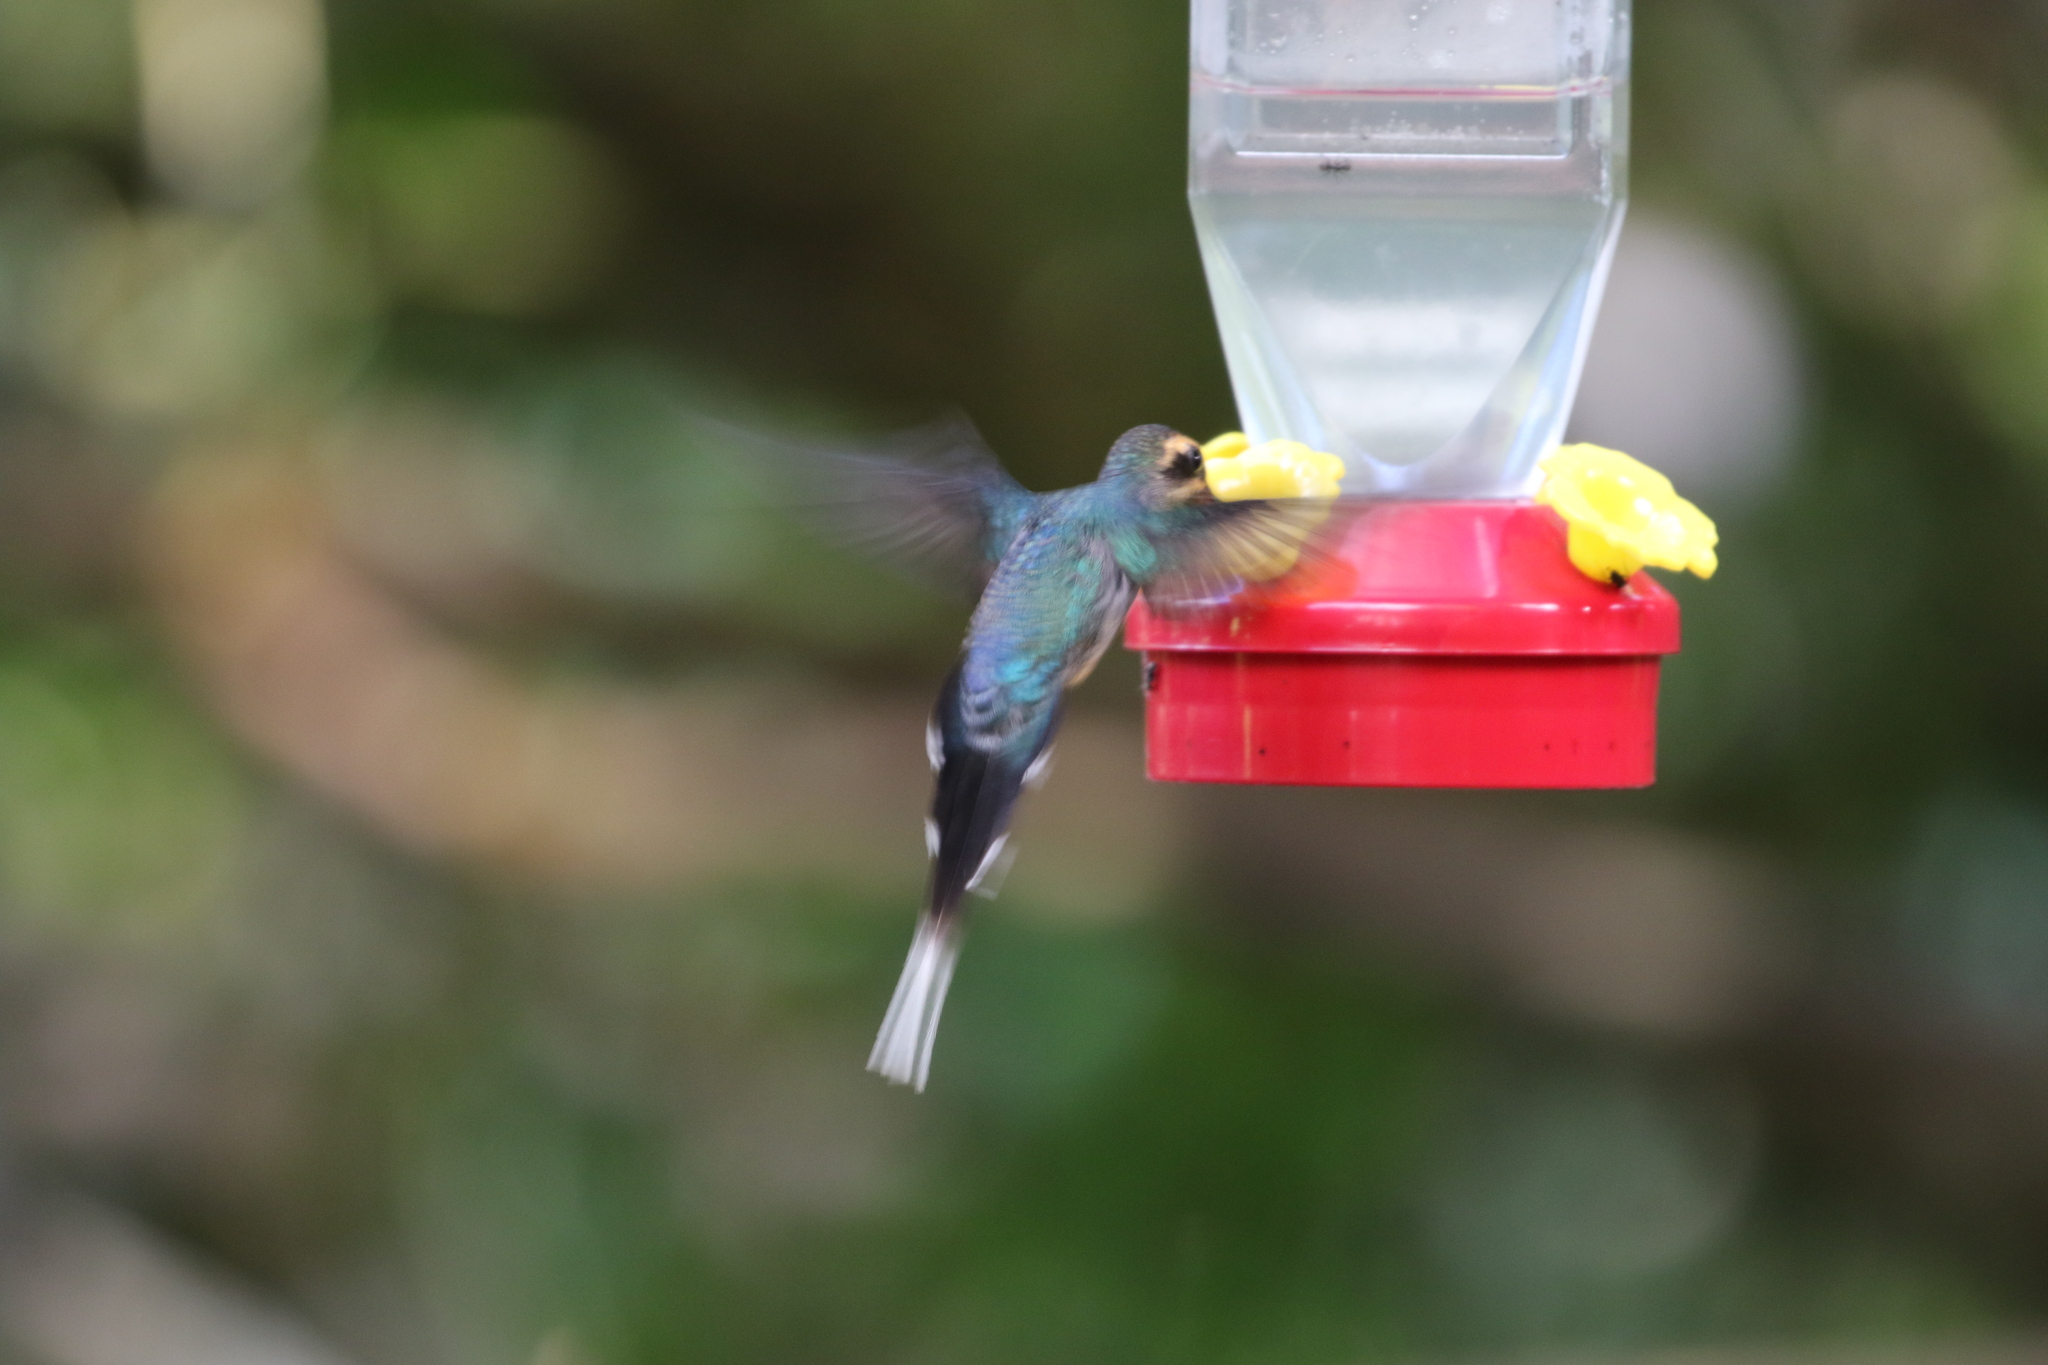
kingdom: Animalia
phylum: Chordata
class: Aves
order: Apodiformes
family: Trochilidae
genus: Phaethornis
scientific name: Phaethornis guy
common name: Green hermit
